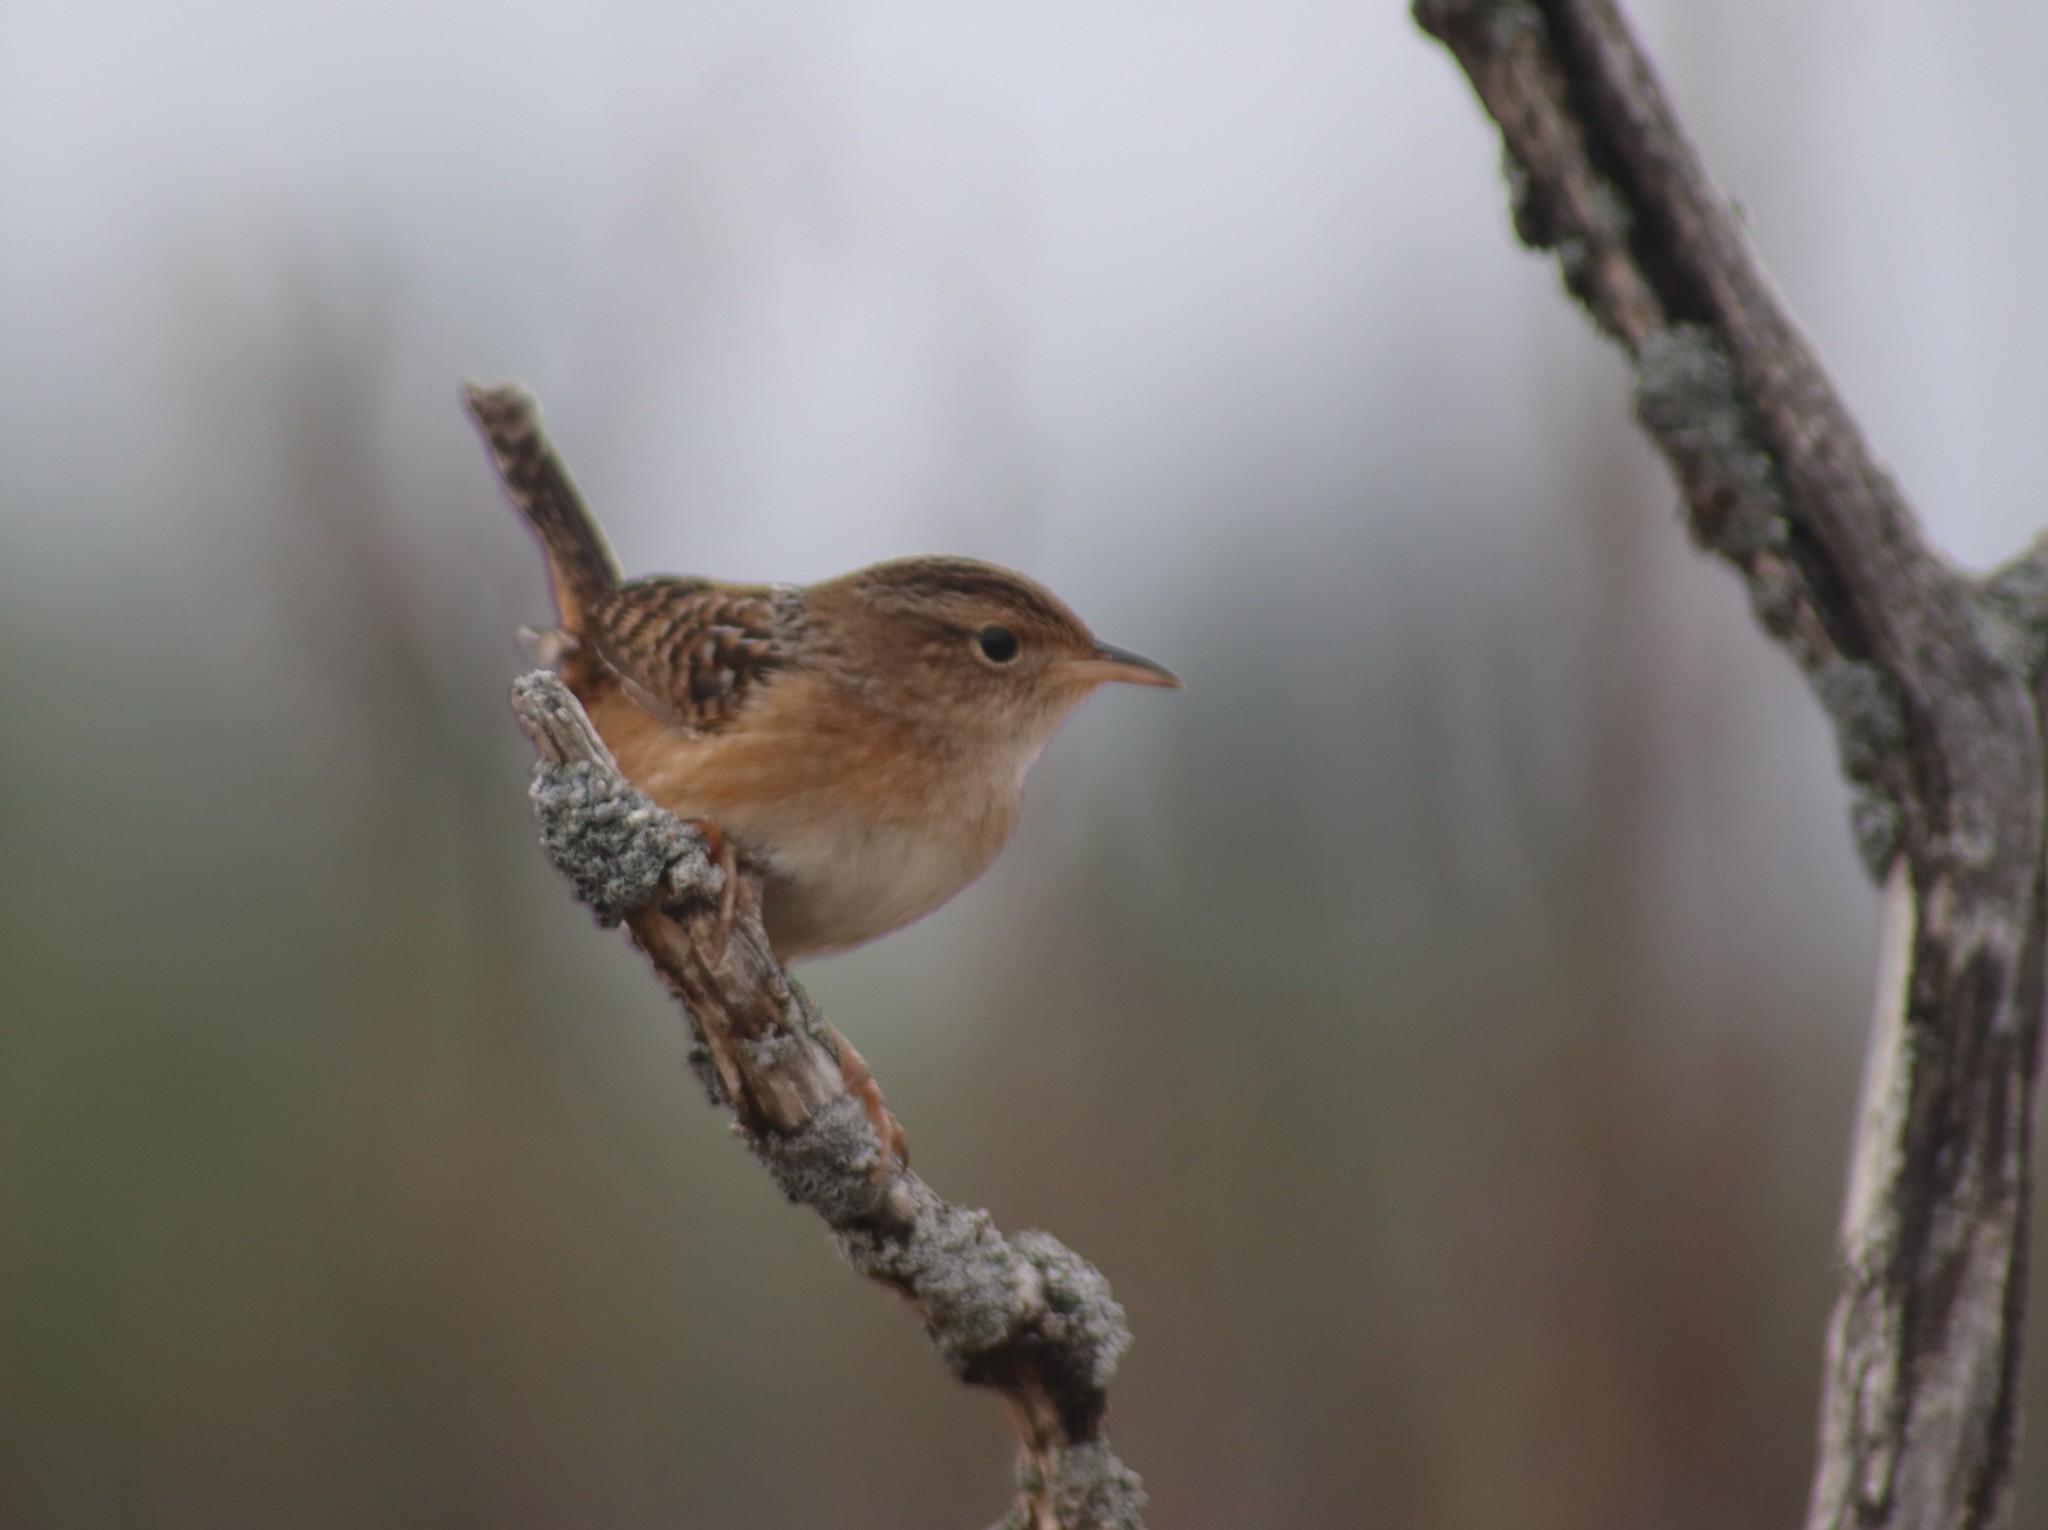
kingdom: Animalia
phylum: Chordata
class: Aves
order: Passeriformes
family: Troglodytidae
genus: Cistothorus
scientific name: Cistothorus platensis
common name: Sedge wren
